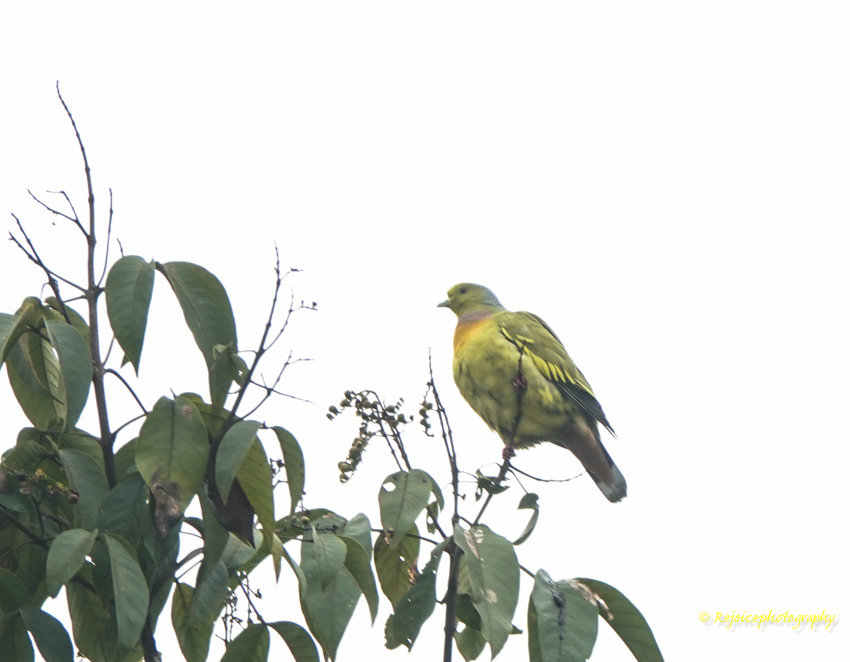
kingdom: Animalia
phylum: Chordata
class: Aves
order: Columbiformes
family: Columbidae
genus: Treron
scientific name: Treron bicinctus
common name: Orange-breasted green pigeon
